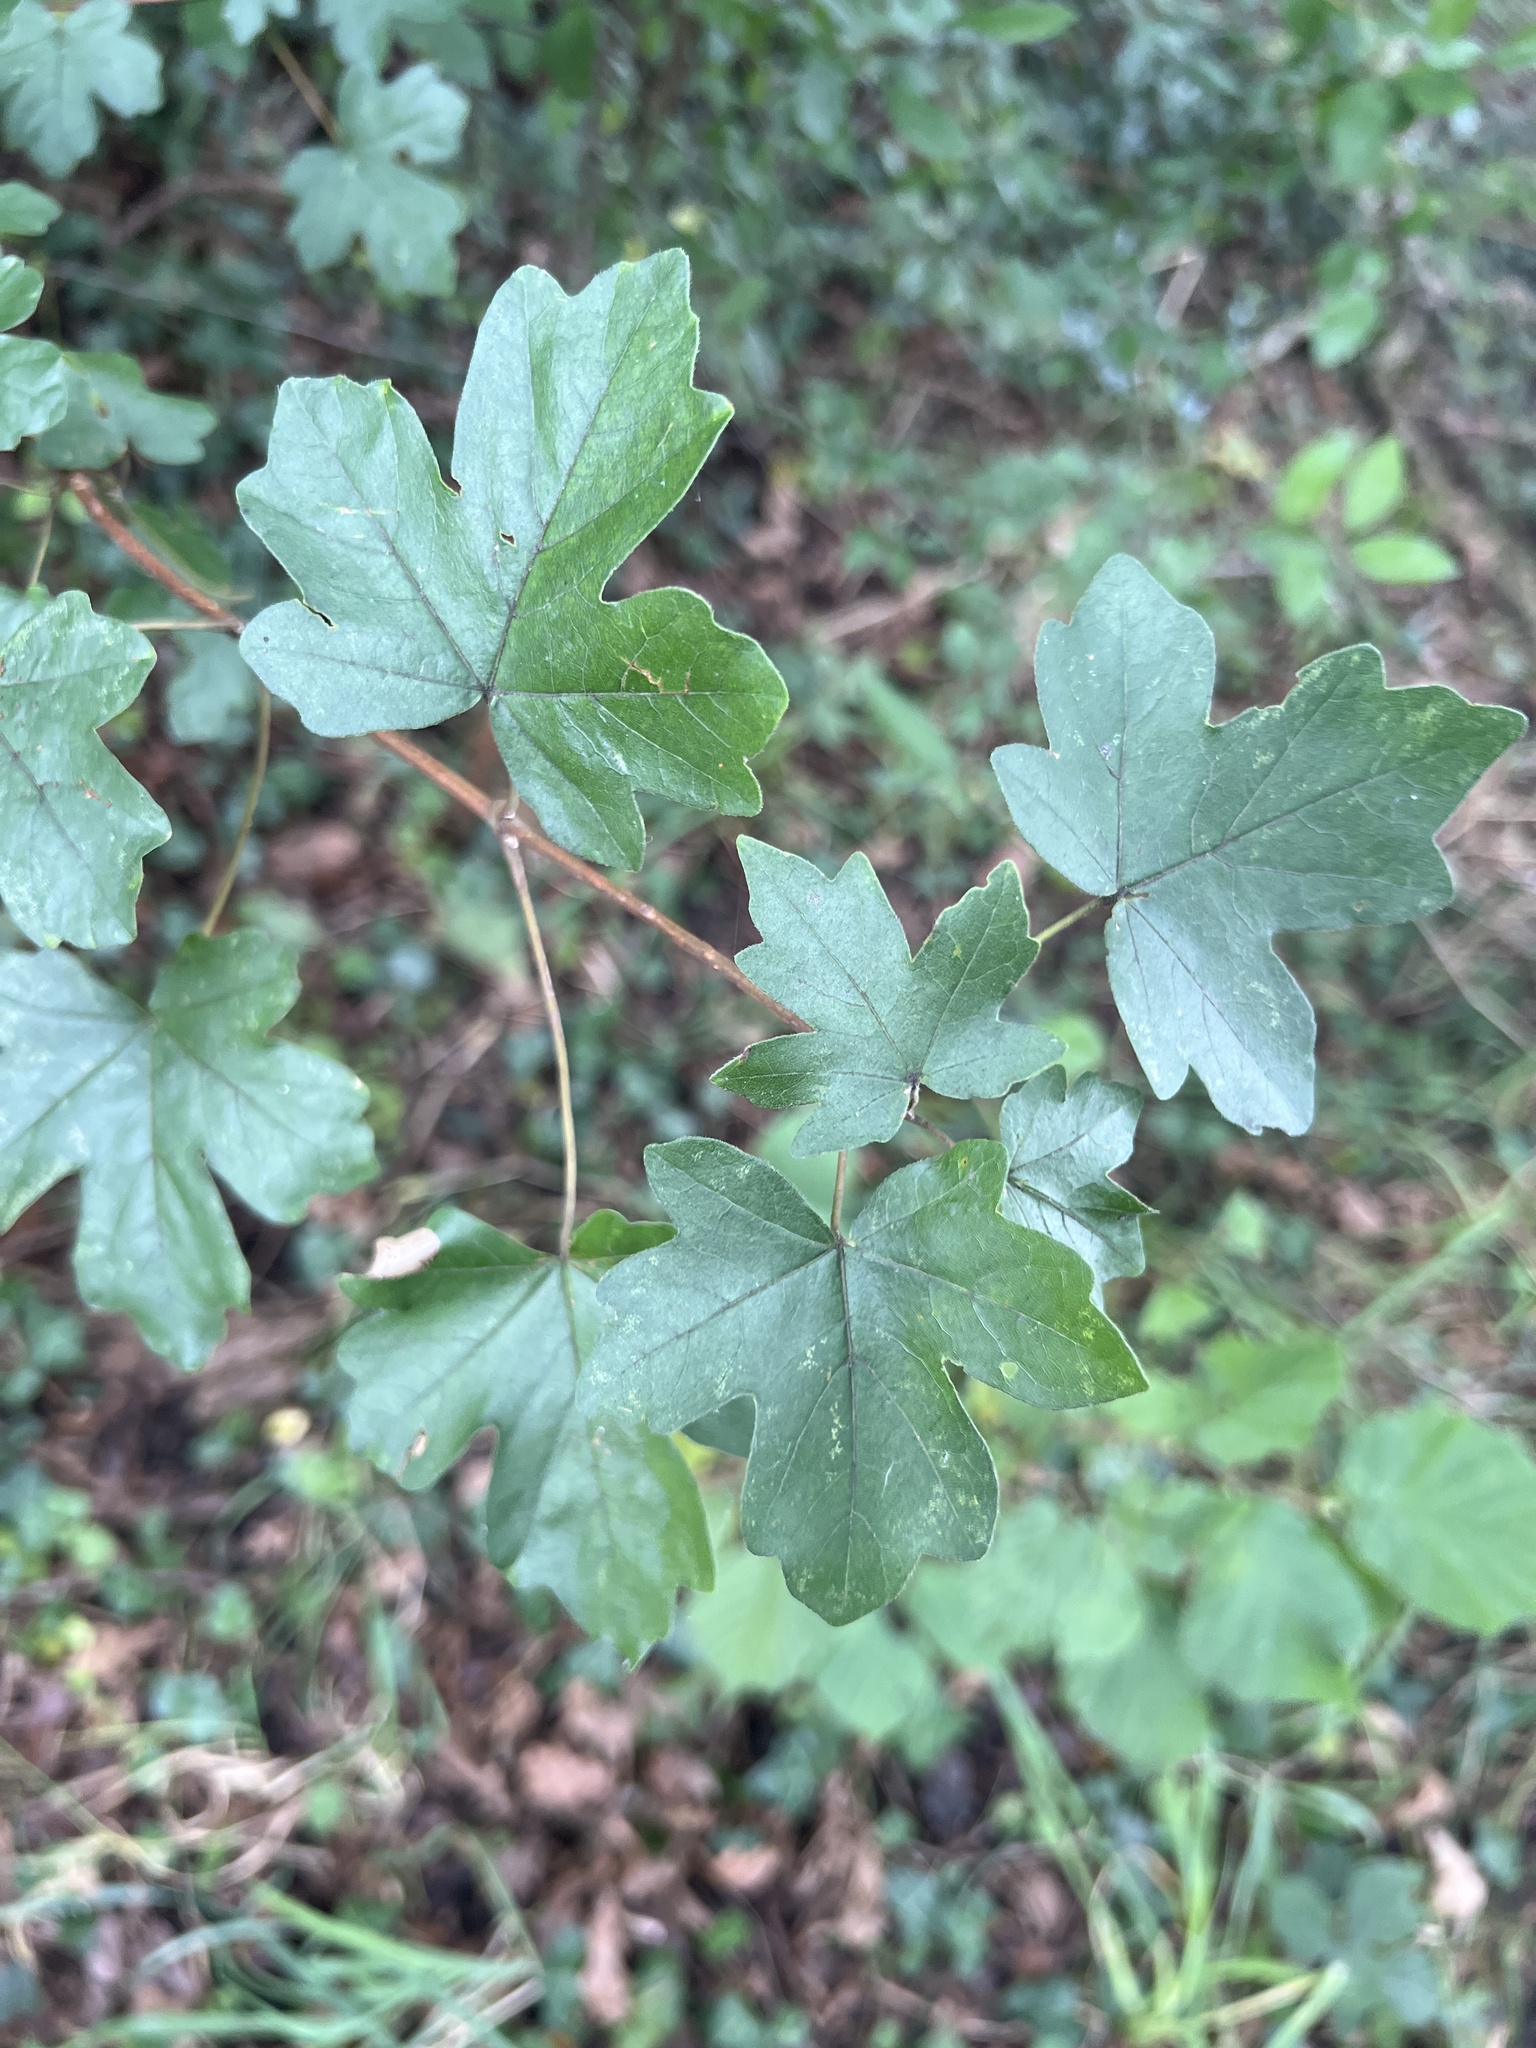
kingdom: Plantae
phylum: Tracheophyta
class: Magnoliopsida
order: Sapindales
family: Sapindaceae
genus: Acer
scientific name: Acer campestre
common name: Field maple
